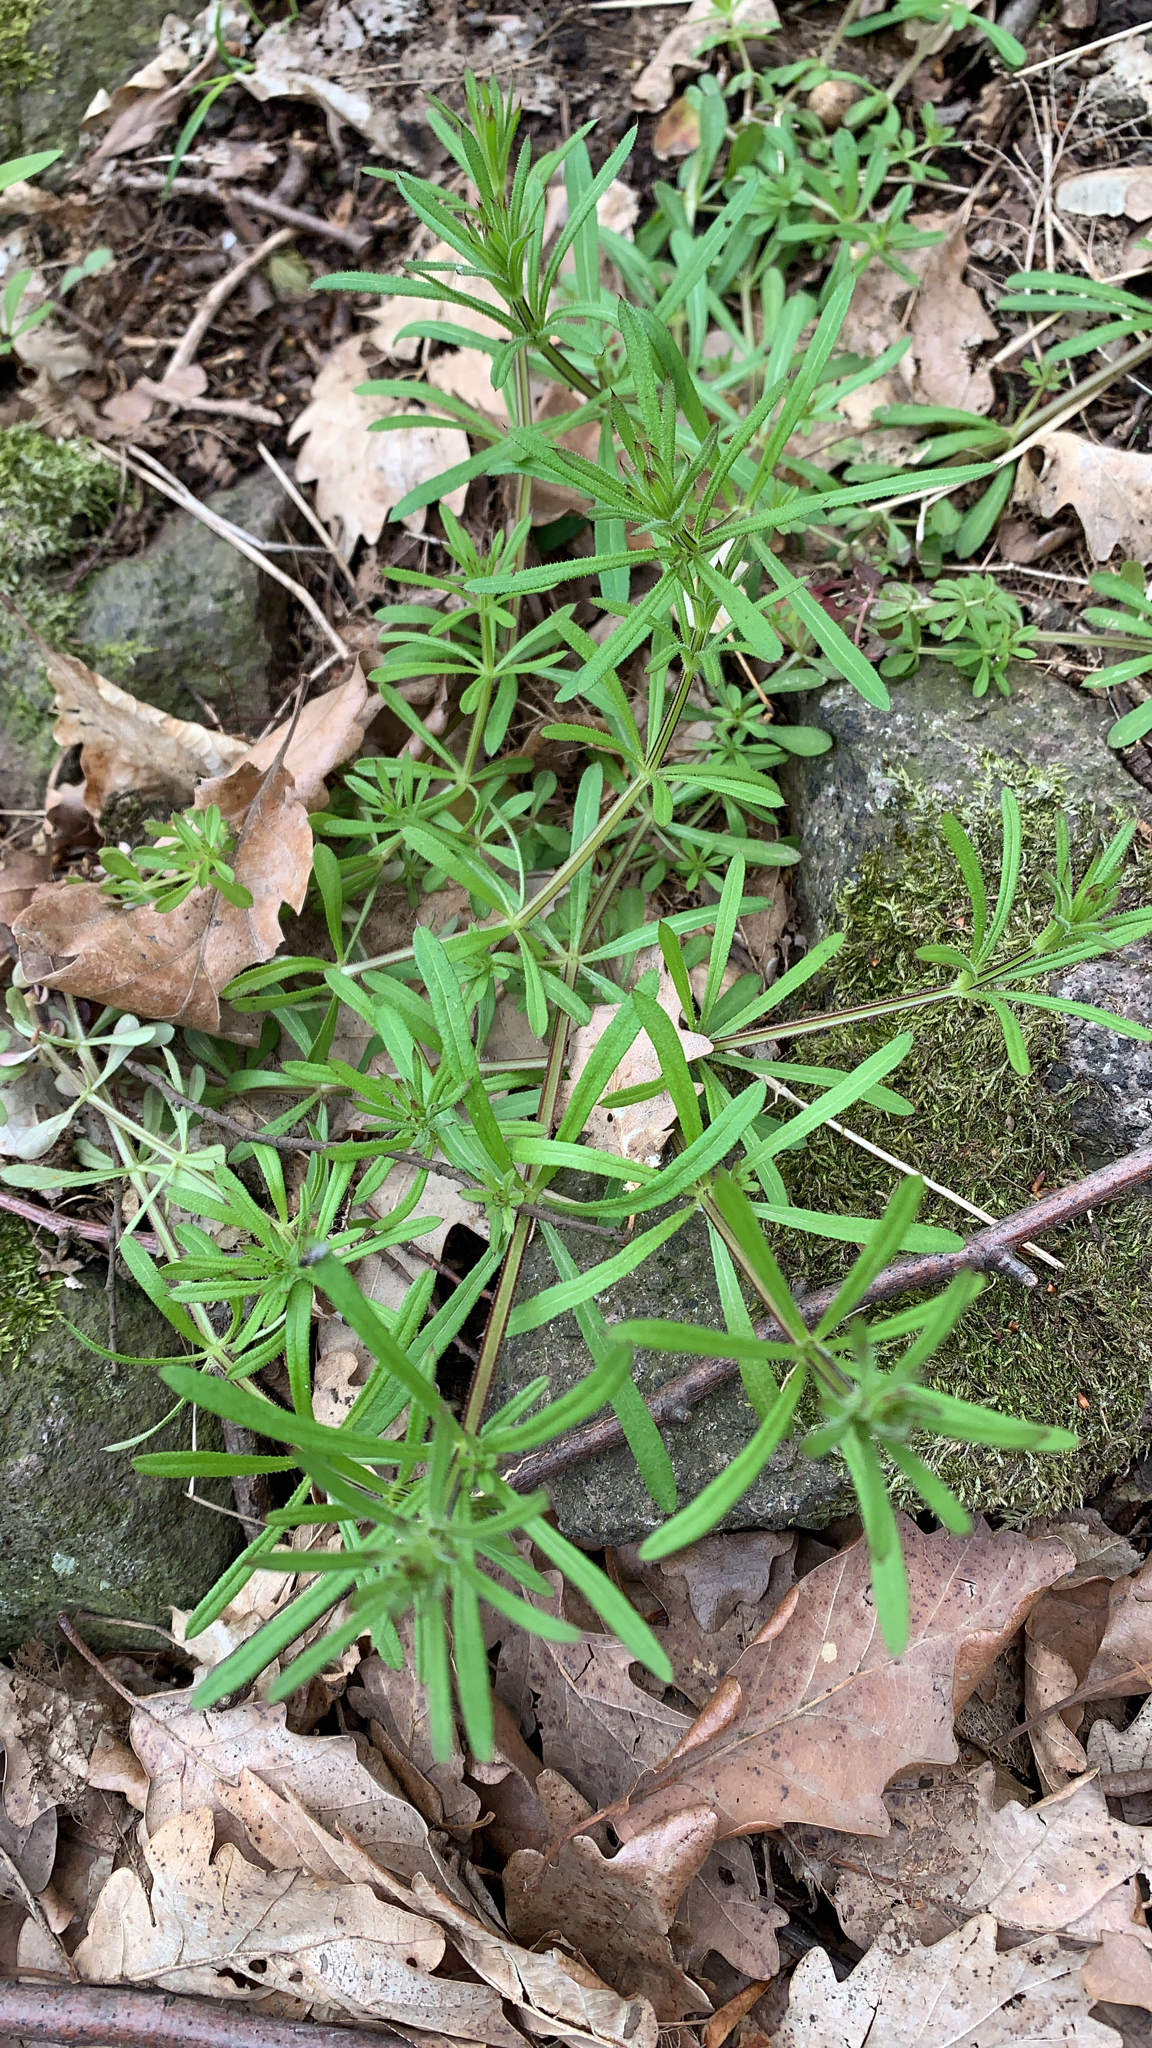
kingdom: Plantae
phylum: Tracheophyta
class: Magnoliopsida
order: Gentianales
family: Rubiaceae
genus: Galium
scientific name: Galium aparine
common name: Cleavers
